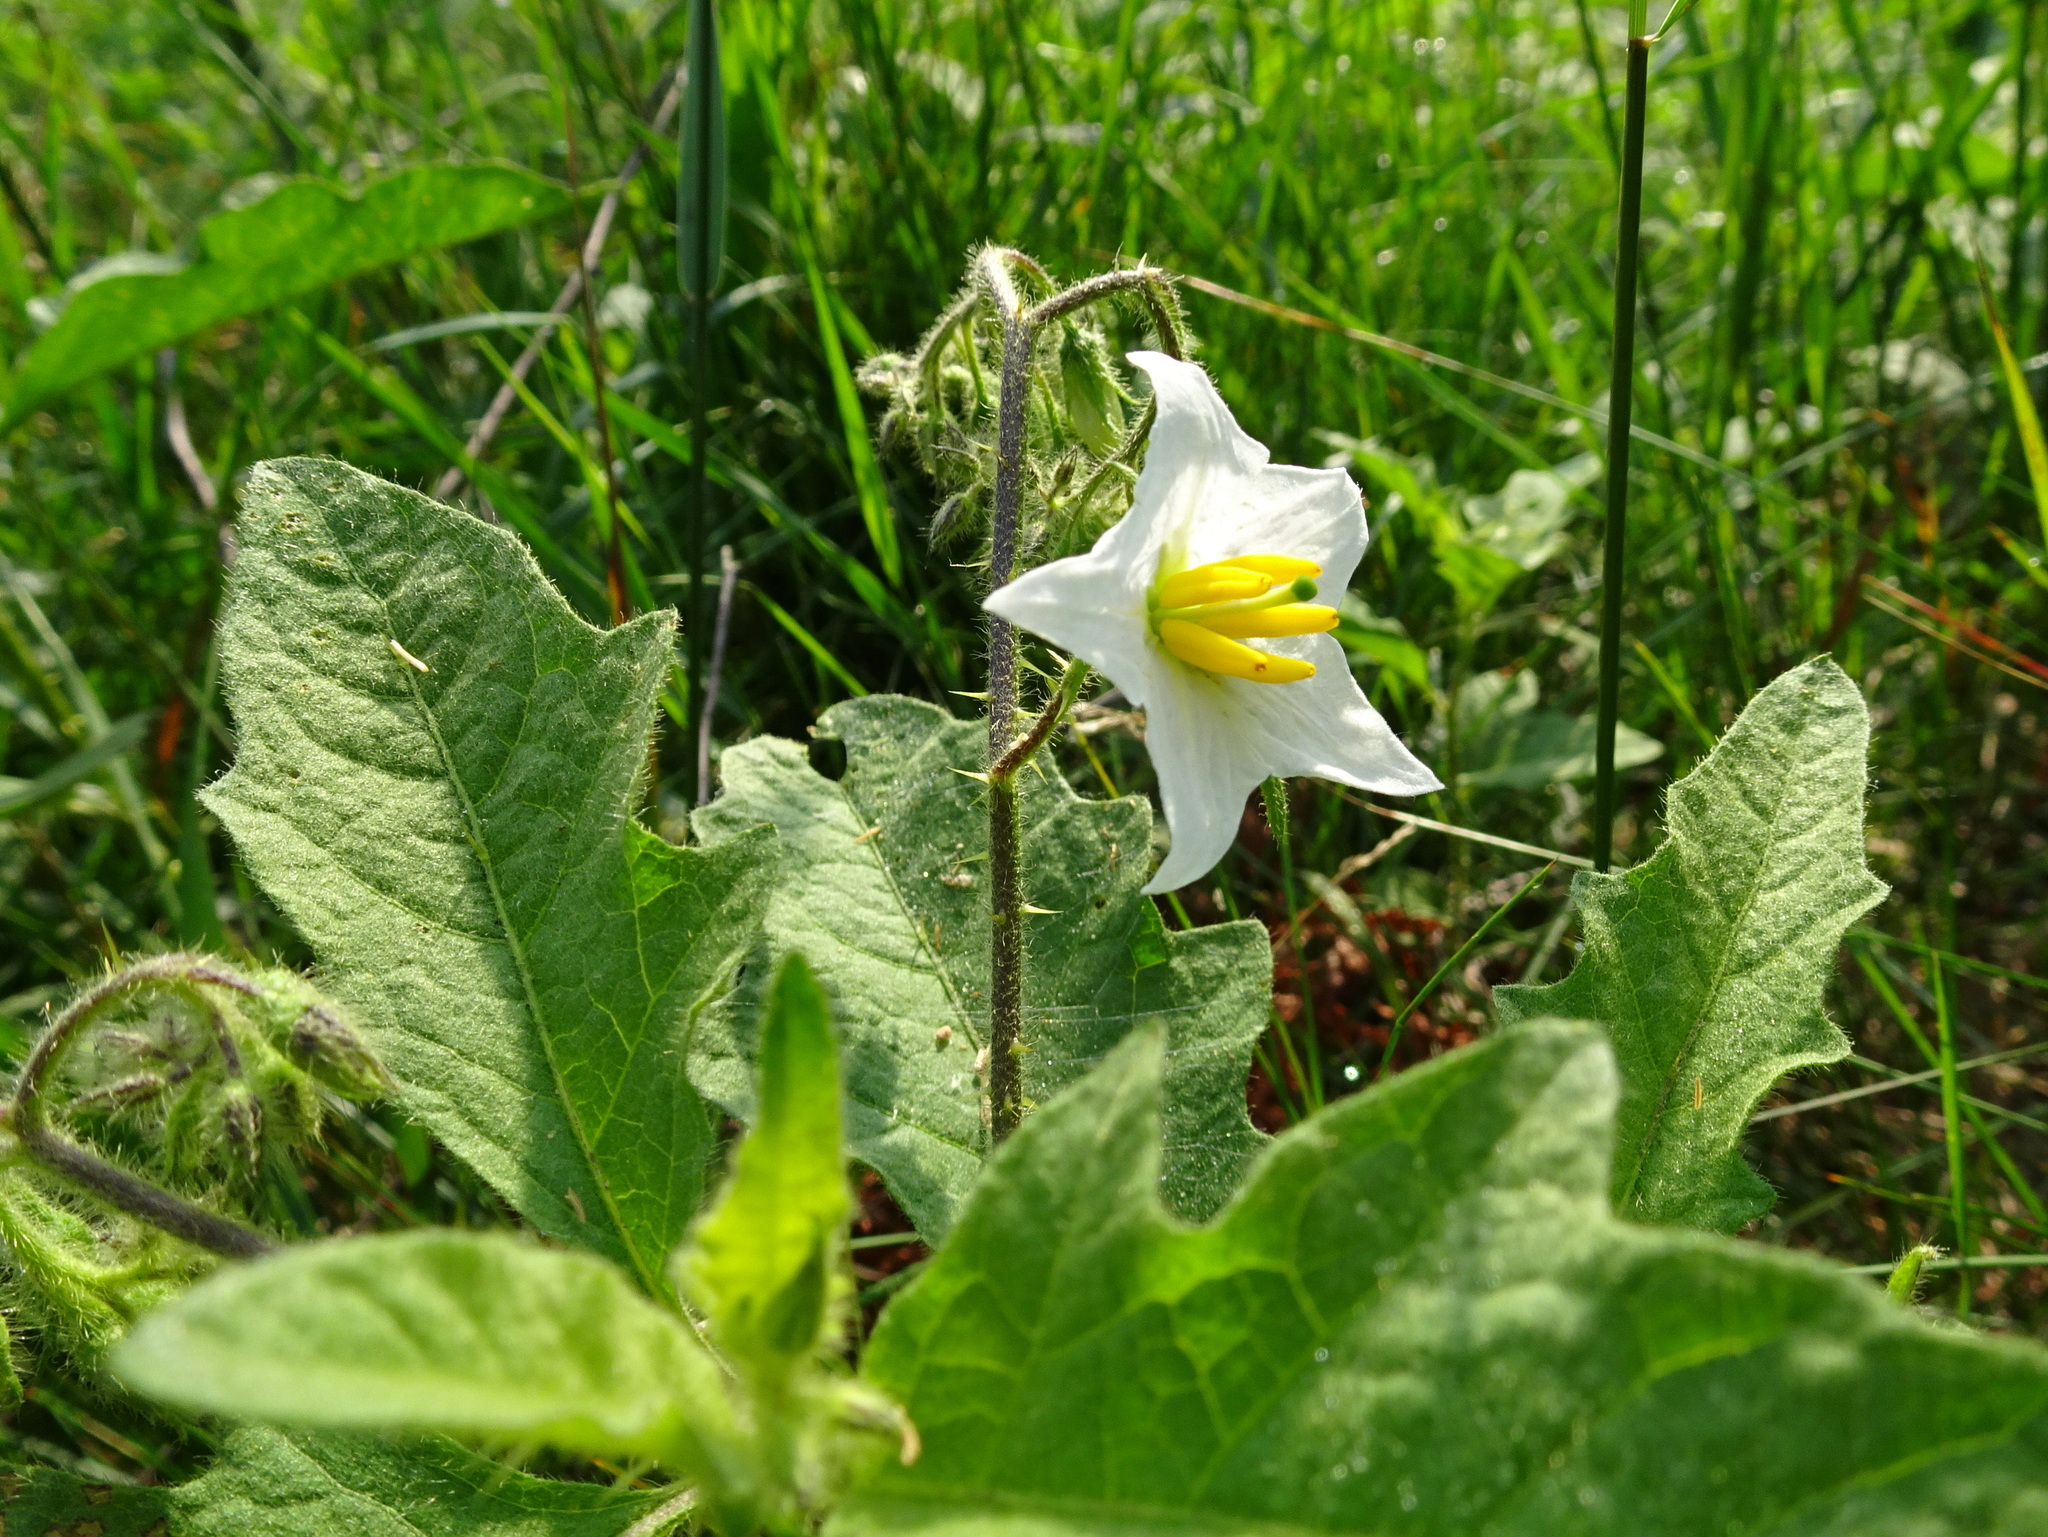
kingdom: Plantae
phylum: Tracheophyta
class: Magnoliopsida
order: Solanales
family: Solanaceae
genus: Solanum
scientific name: Solanum carolinense
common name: Horse-nettle
